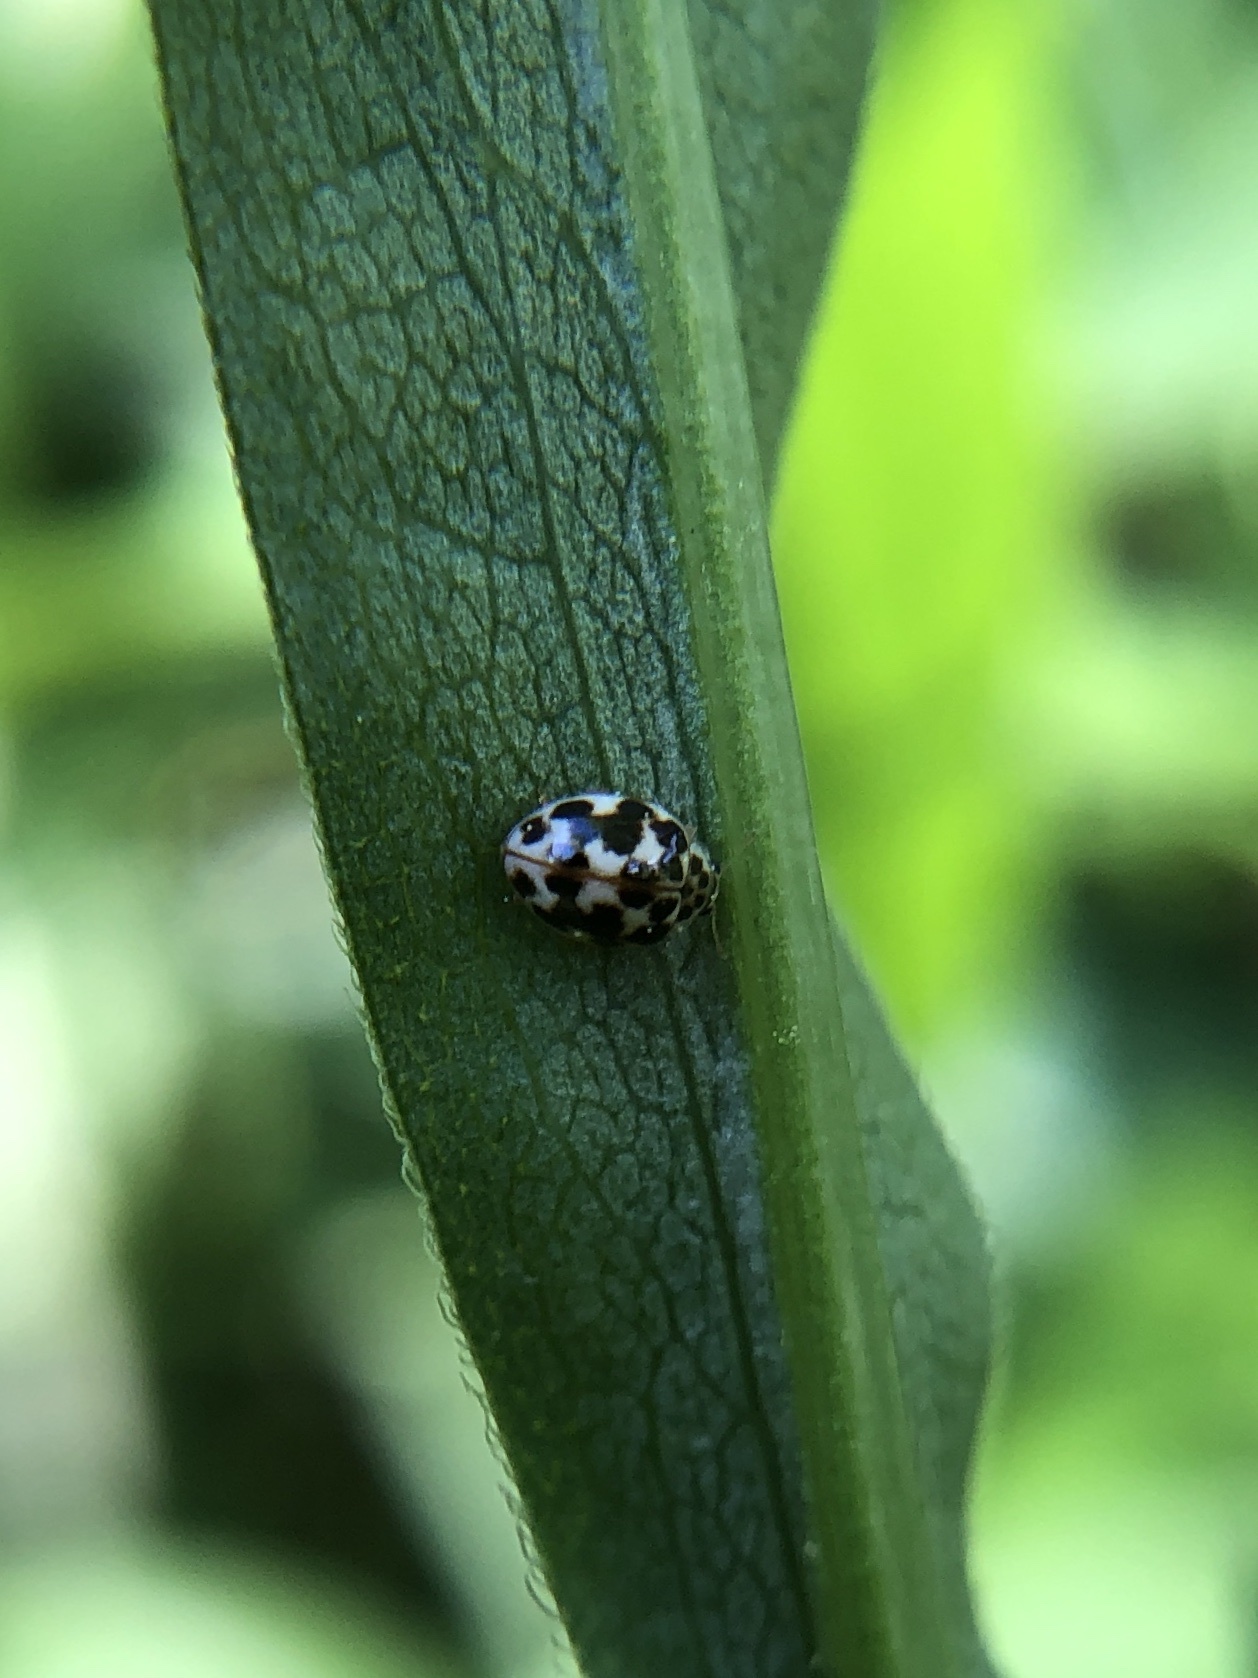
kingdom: Animalia
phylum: Arthropoda
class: Insecta
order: Coleoptera
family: Coccinellidae
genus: Psyllobora
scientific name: Psyllobora vigintimaculata
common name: Ladybird beetle
